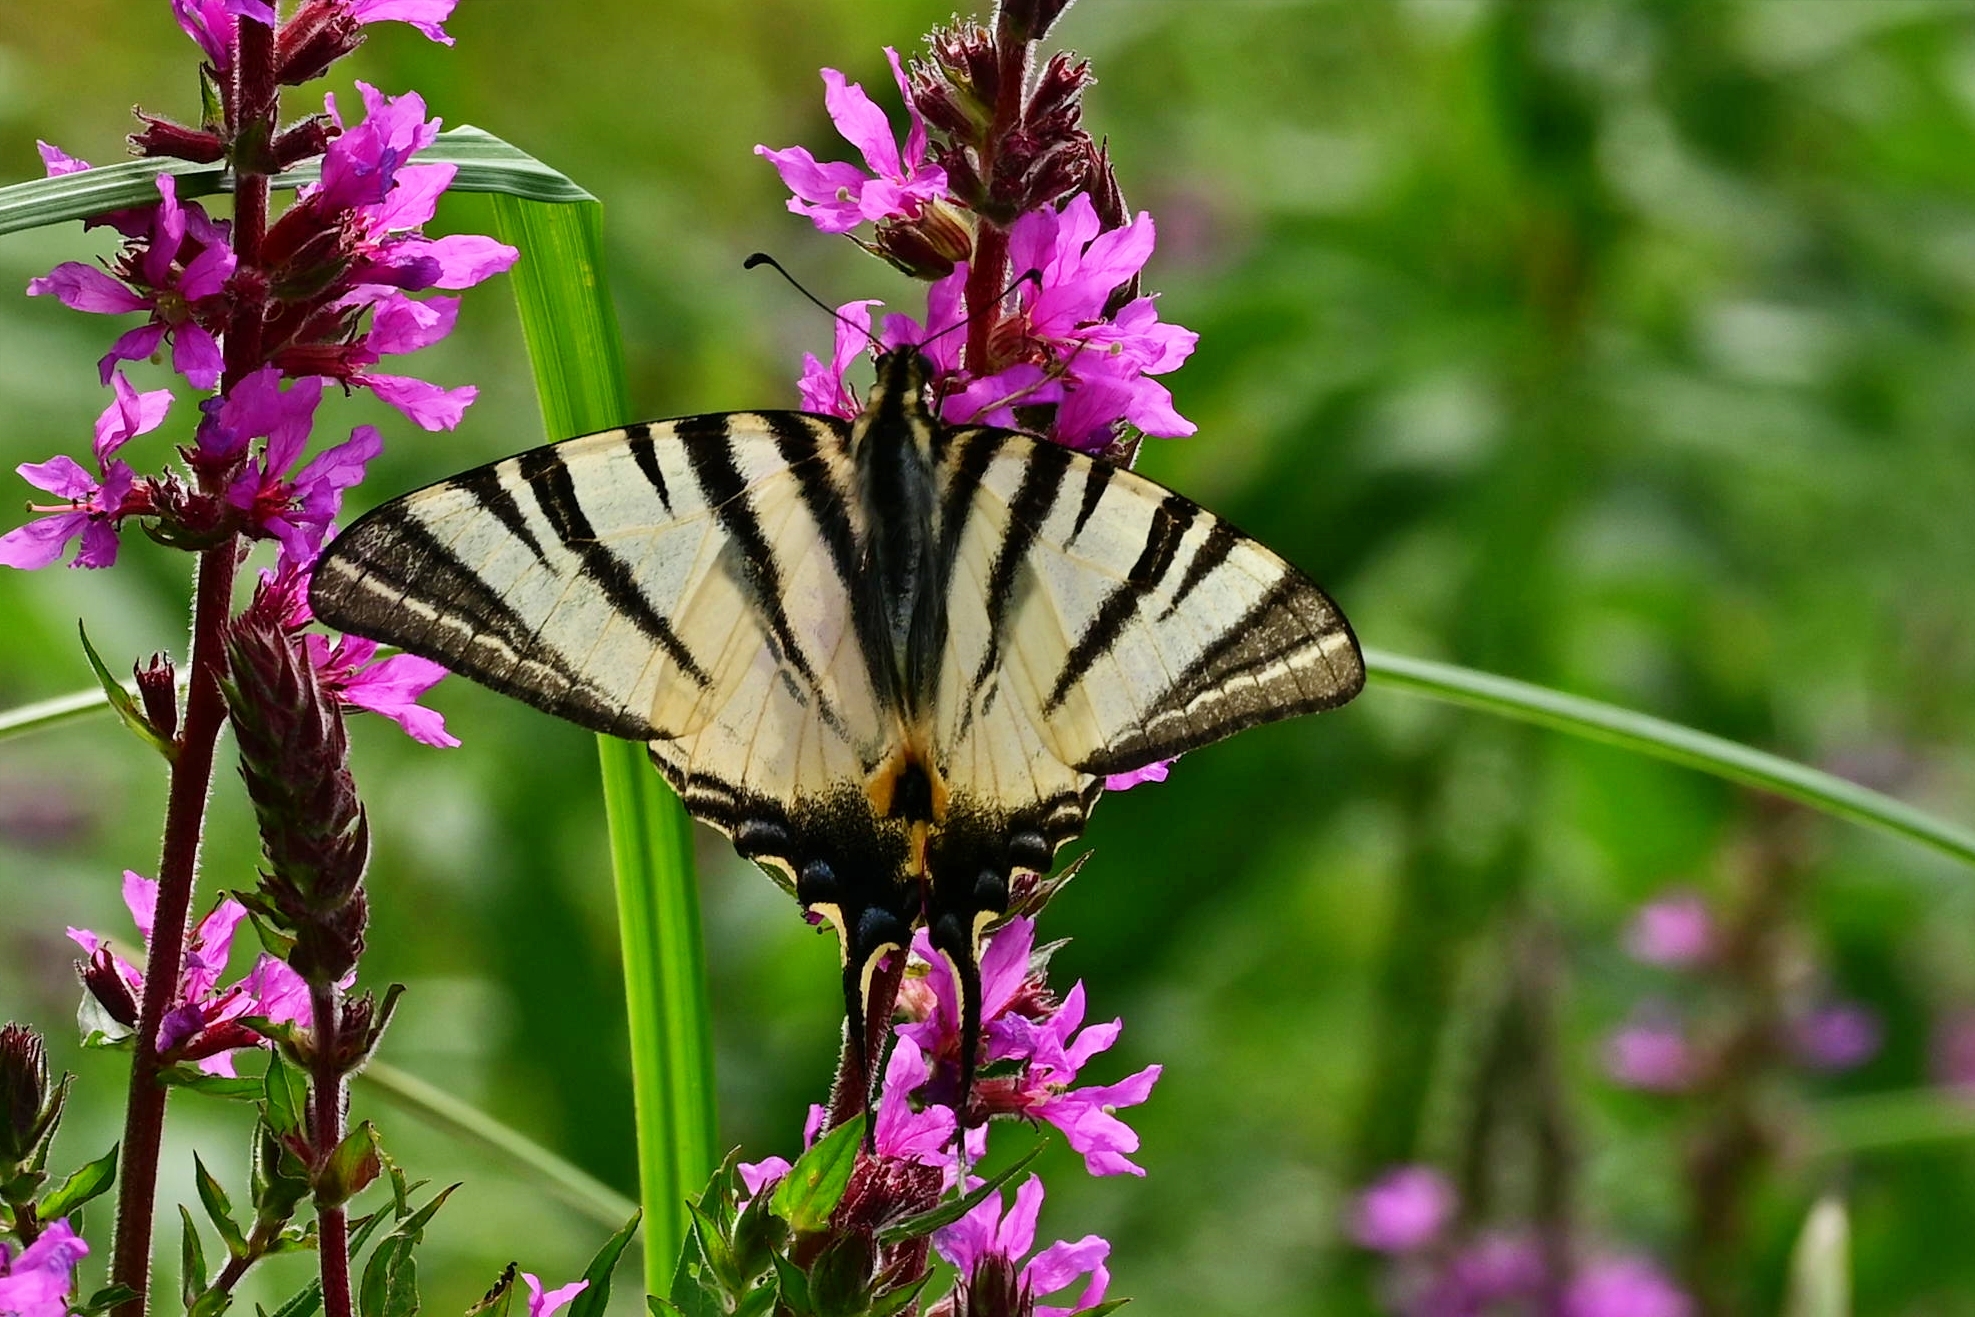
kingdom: Animalia
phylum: Arthropoda
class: Insecta
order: Lepidoptera
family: Papilionidae
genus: Iphiclides
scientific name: Iphiclides podalirius
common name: Scarce swallowtail
